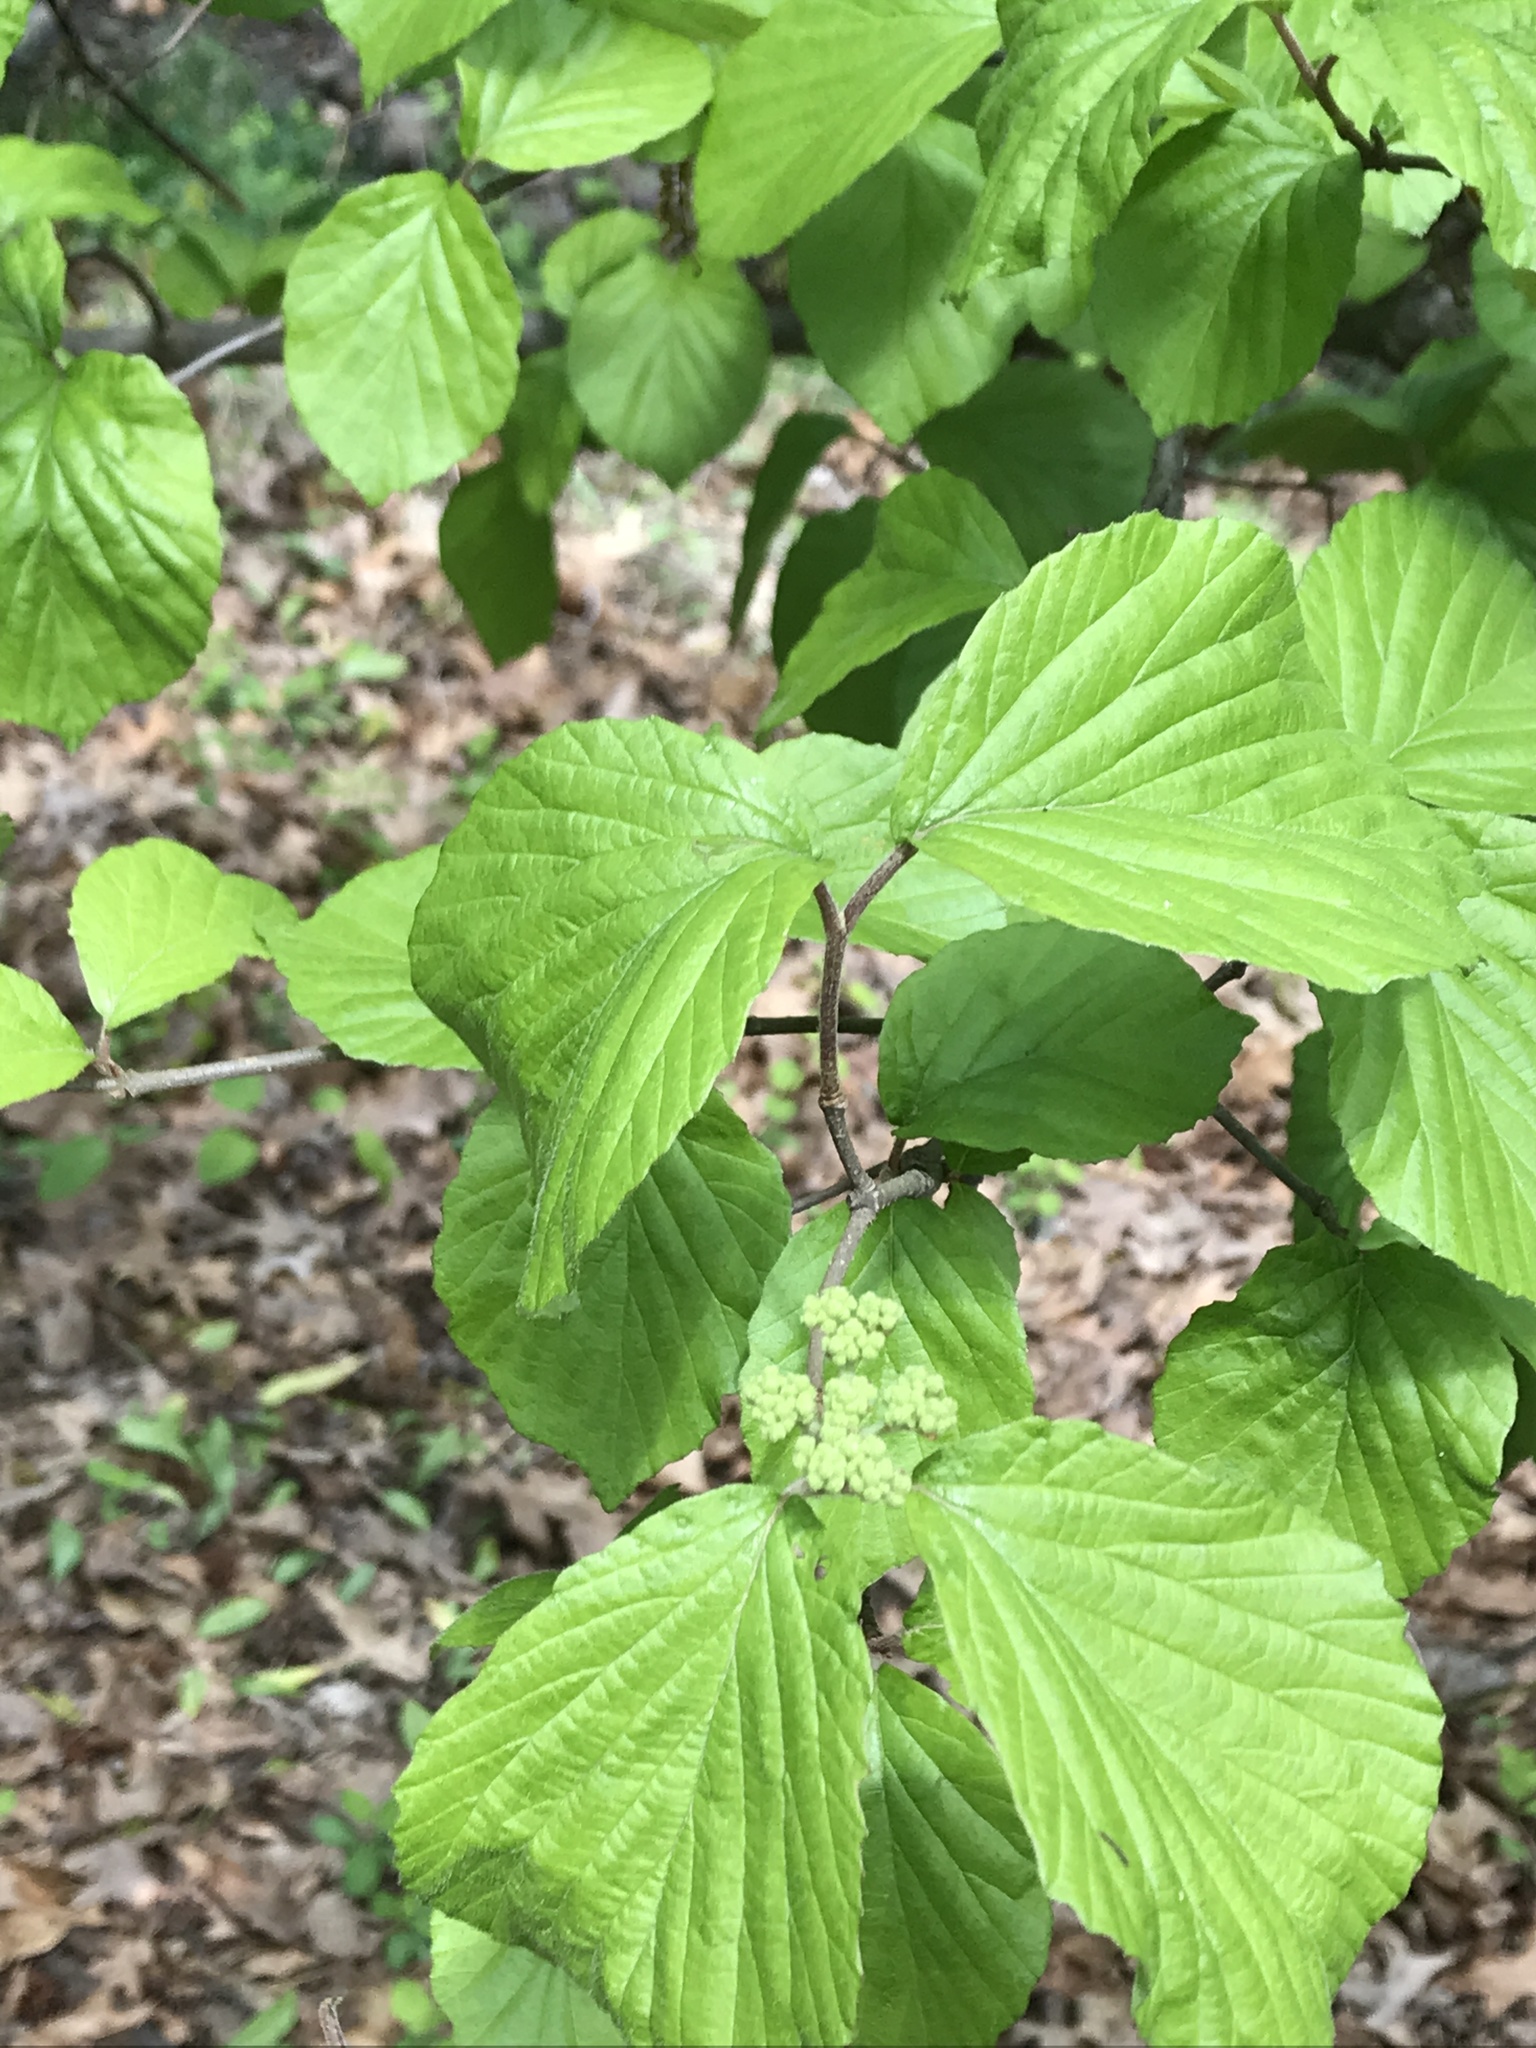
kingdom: Plantae
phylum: Tracheophyta
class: Magnoliopsida
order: Dipsacales
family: Viburnaceae
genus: Viburnum
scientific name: Viburnum dilatatum
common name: Linden arrowwood
